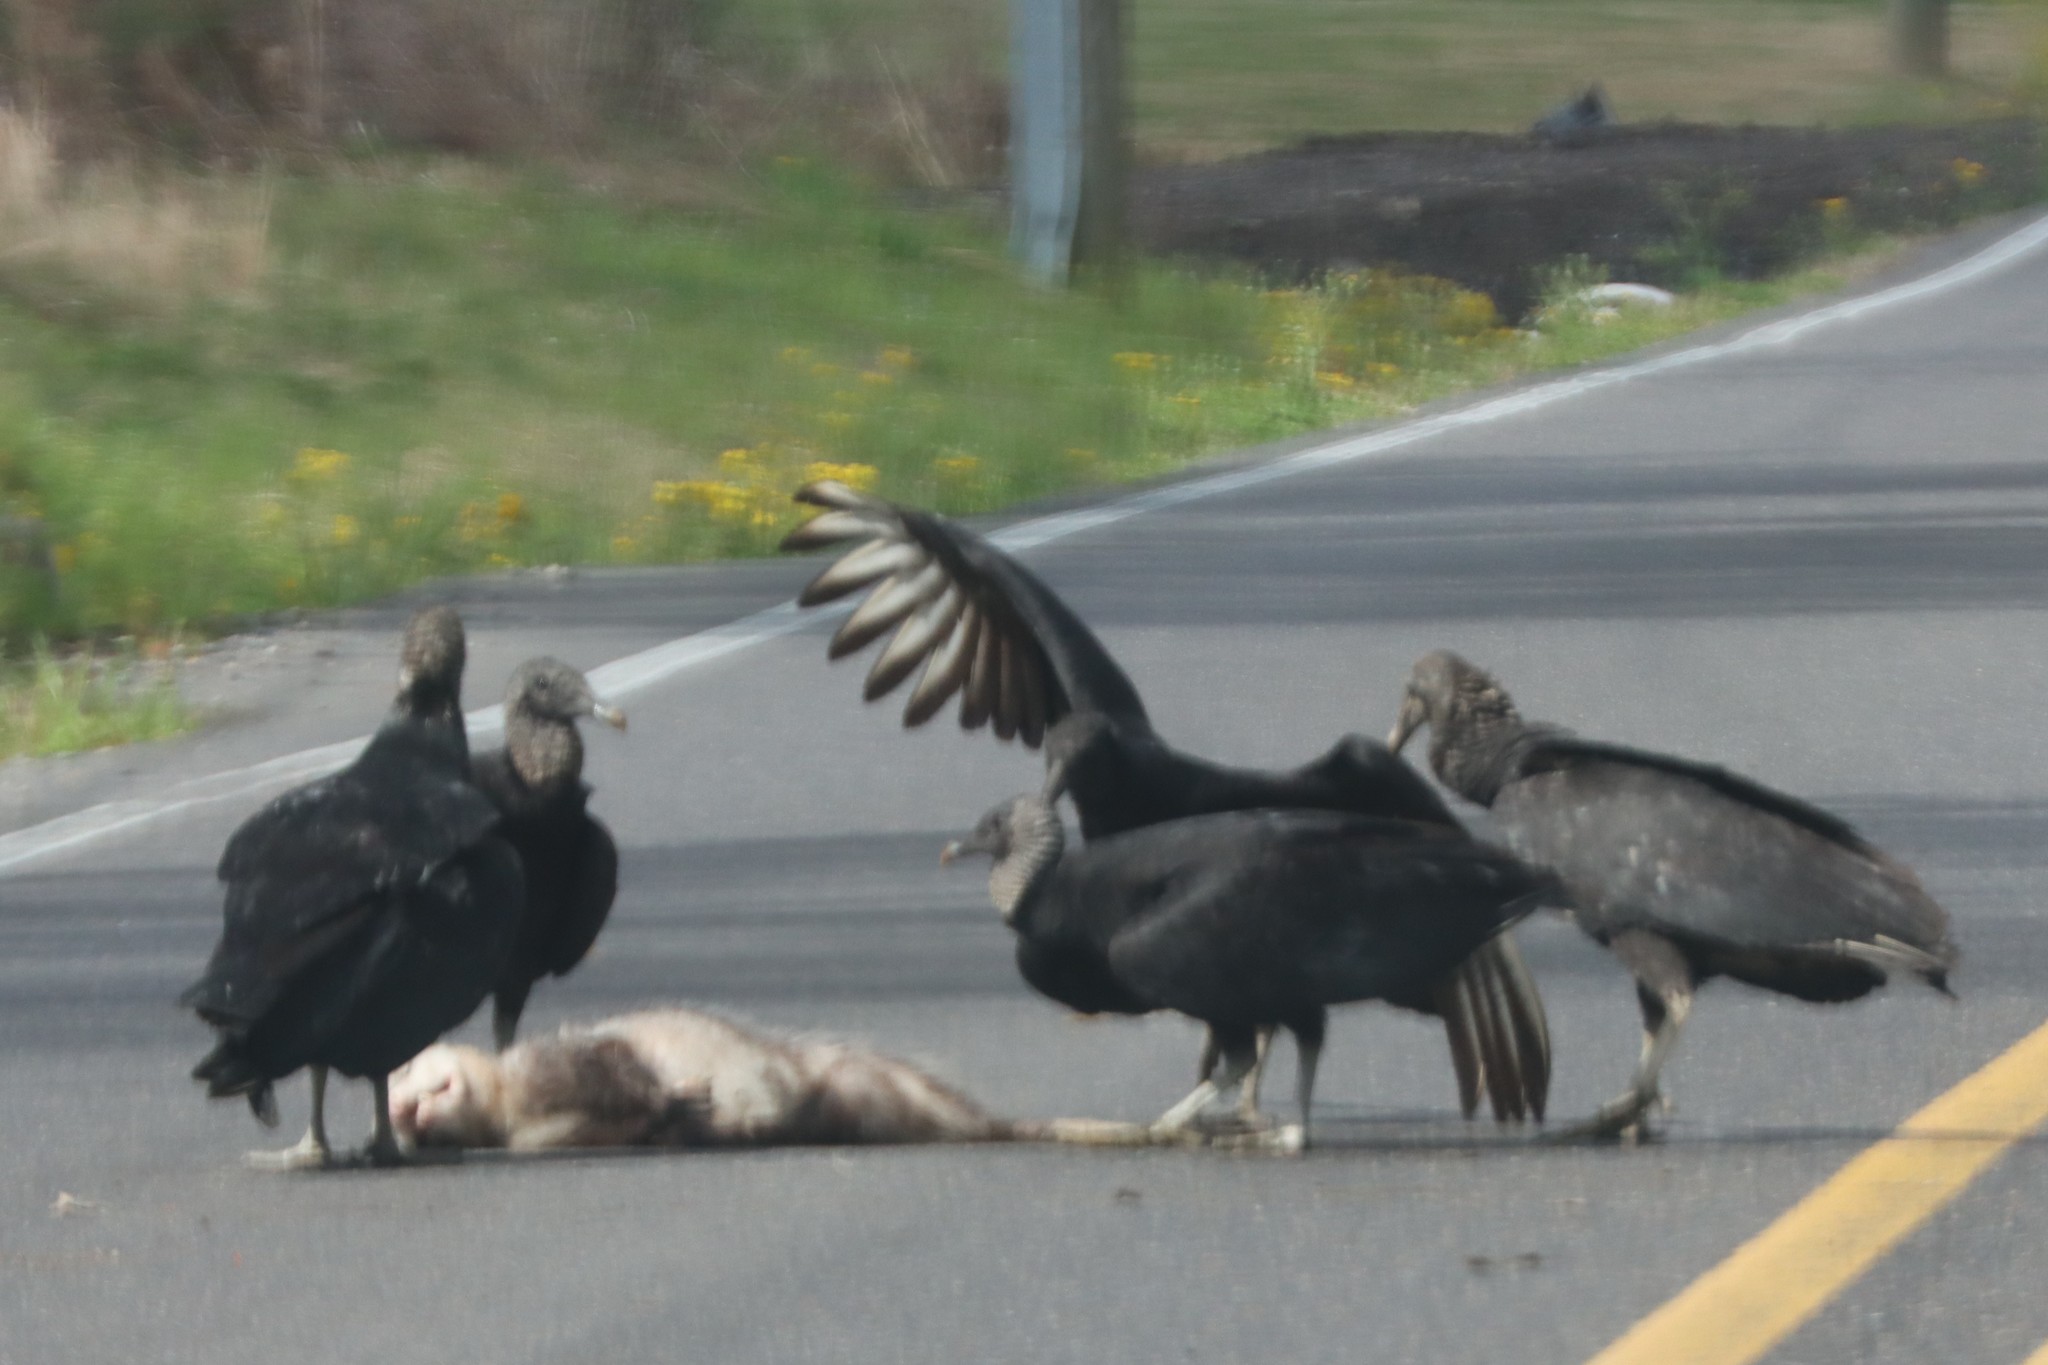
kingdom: Animalia
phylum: Chordata
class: Aves
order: Accipitriformes
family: Cathartidae
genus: Coragyps
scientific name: Coragyps atratus
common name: Black vulture
